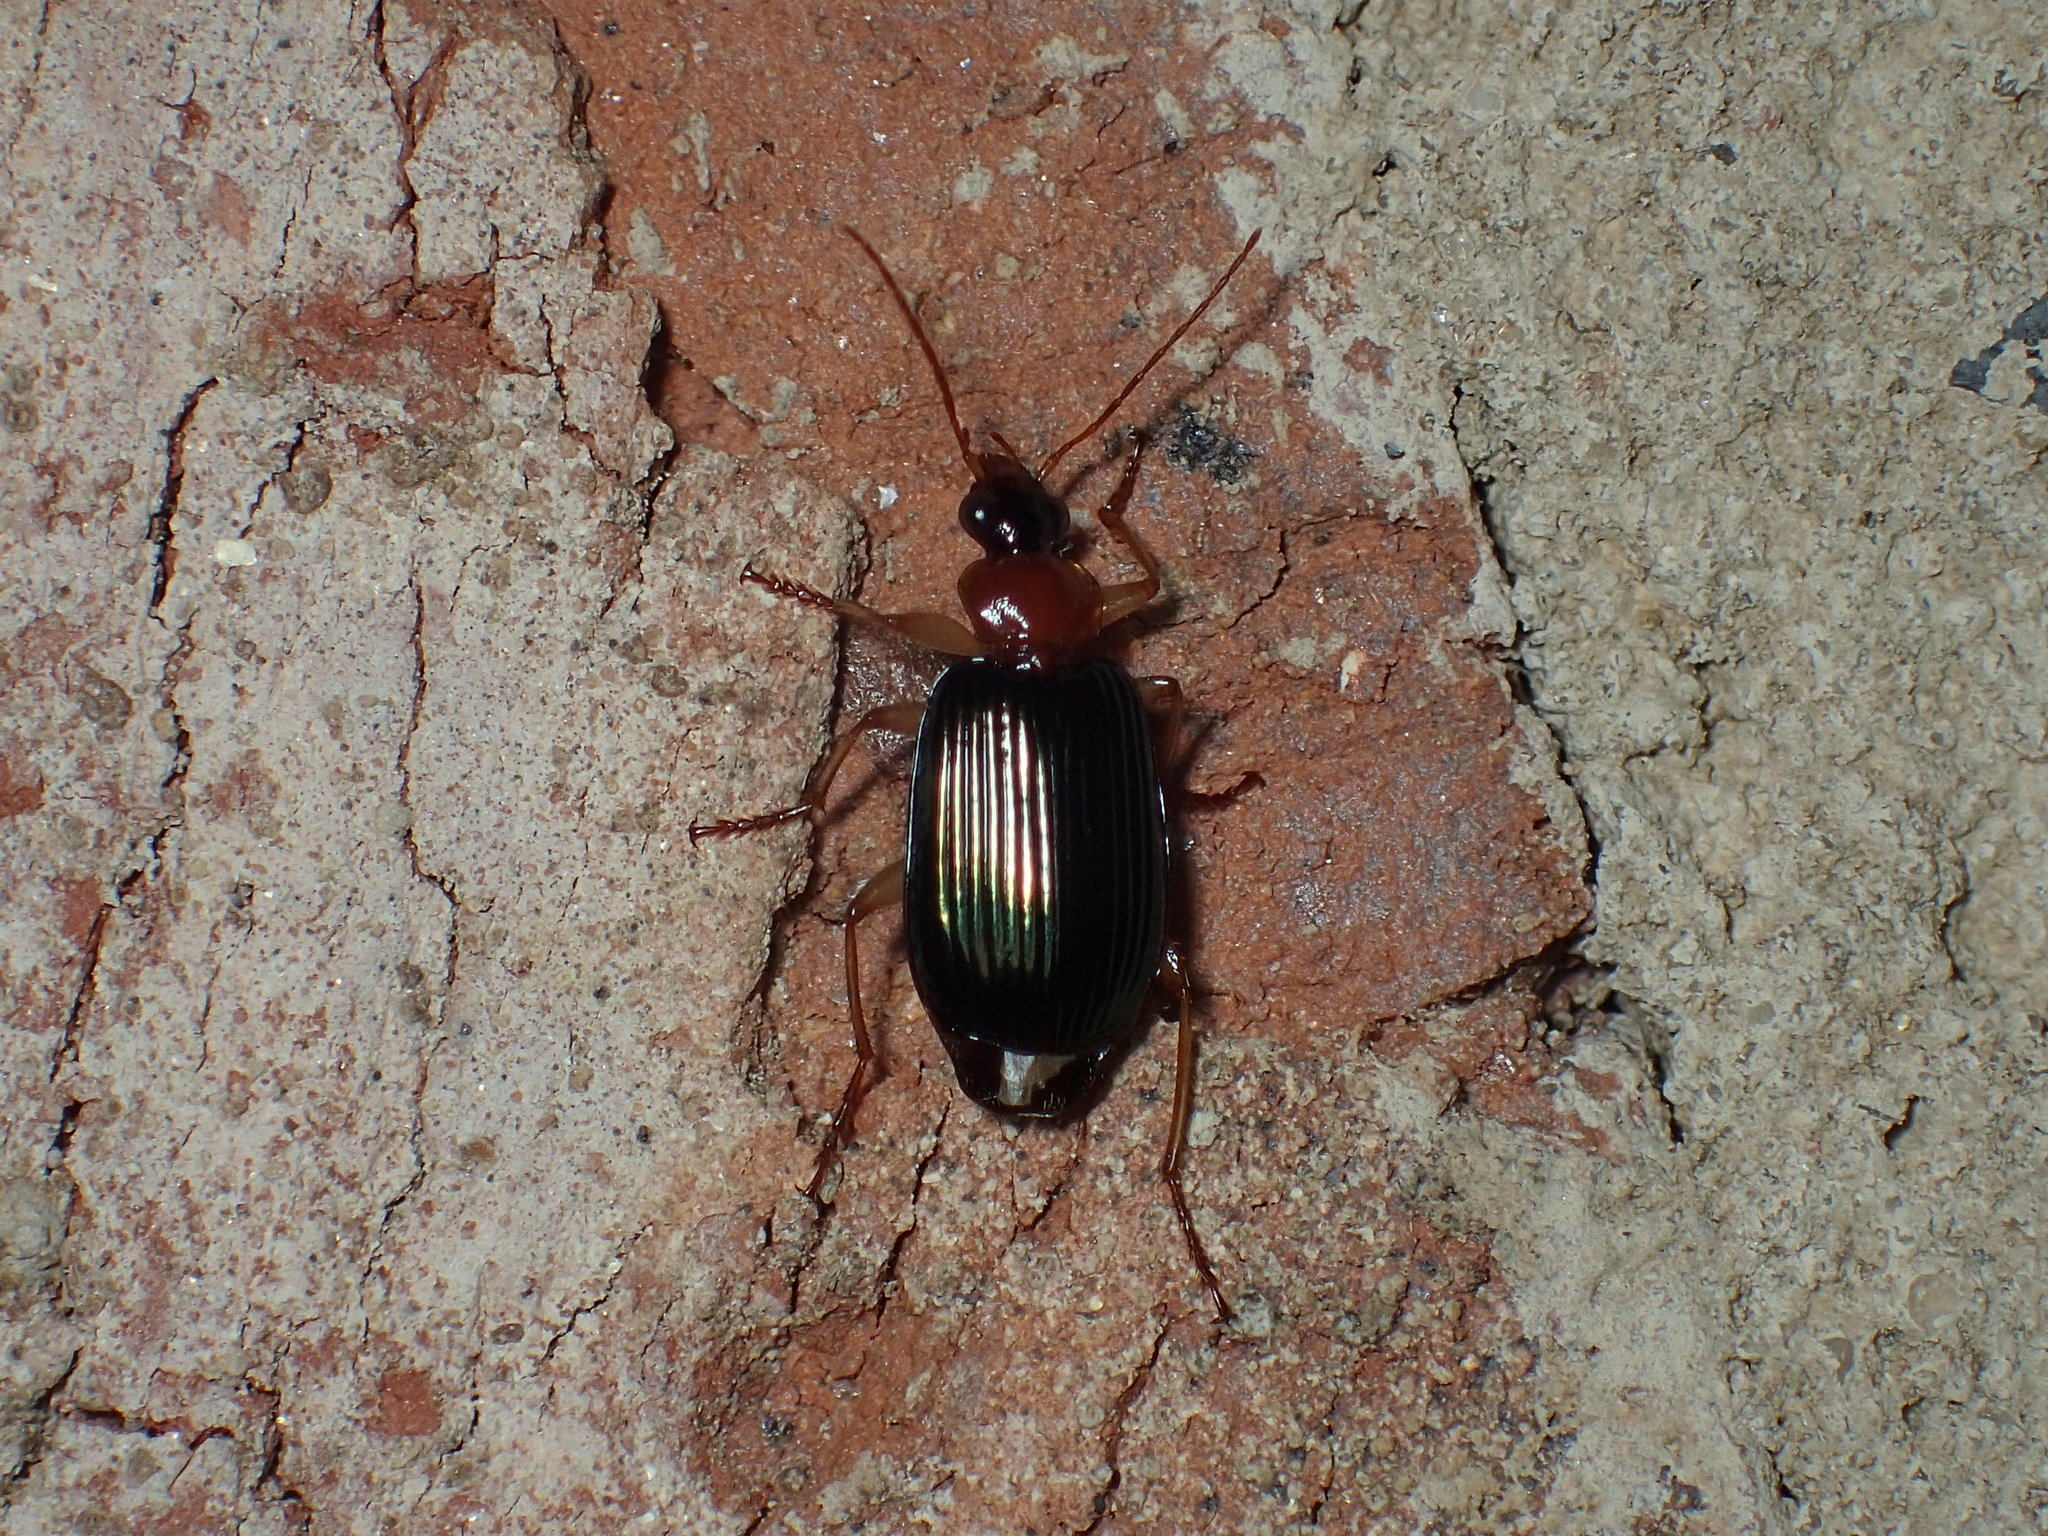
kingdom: Animalia
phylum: Arthropoda
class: Insecta
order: Coleoptera
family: Carabidae
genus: Lebia
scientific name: Lebia tricolor
